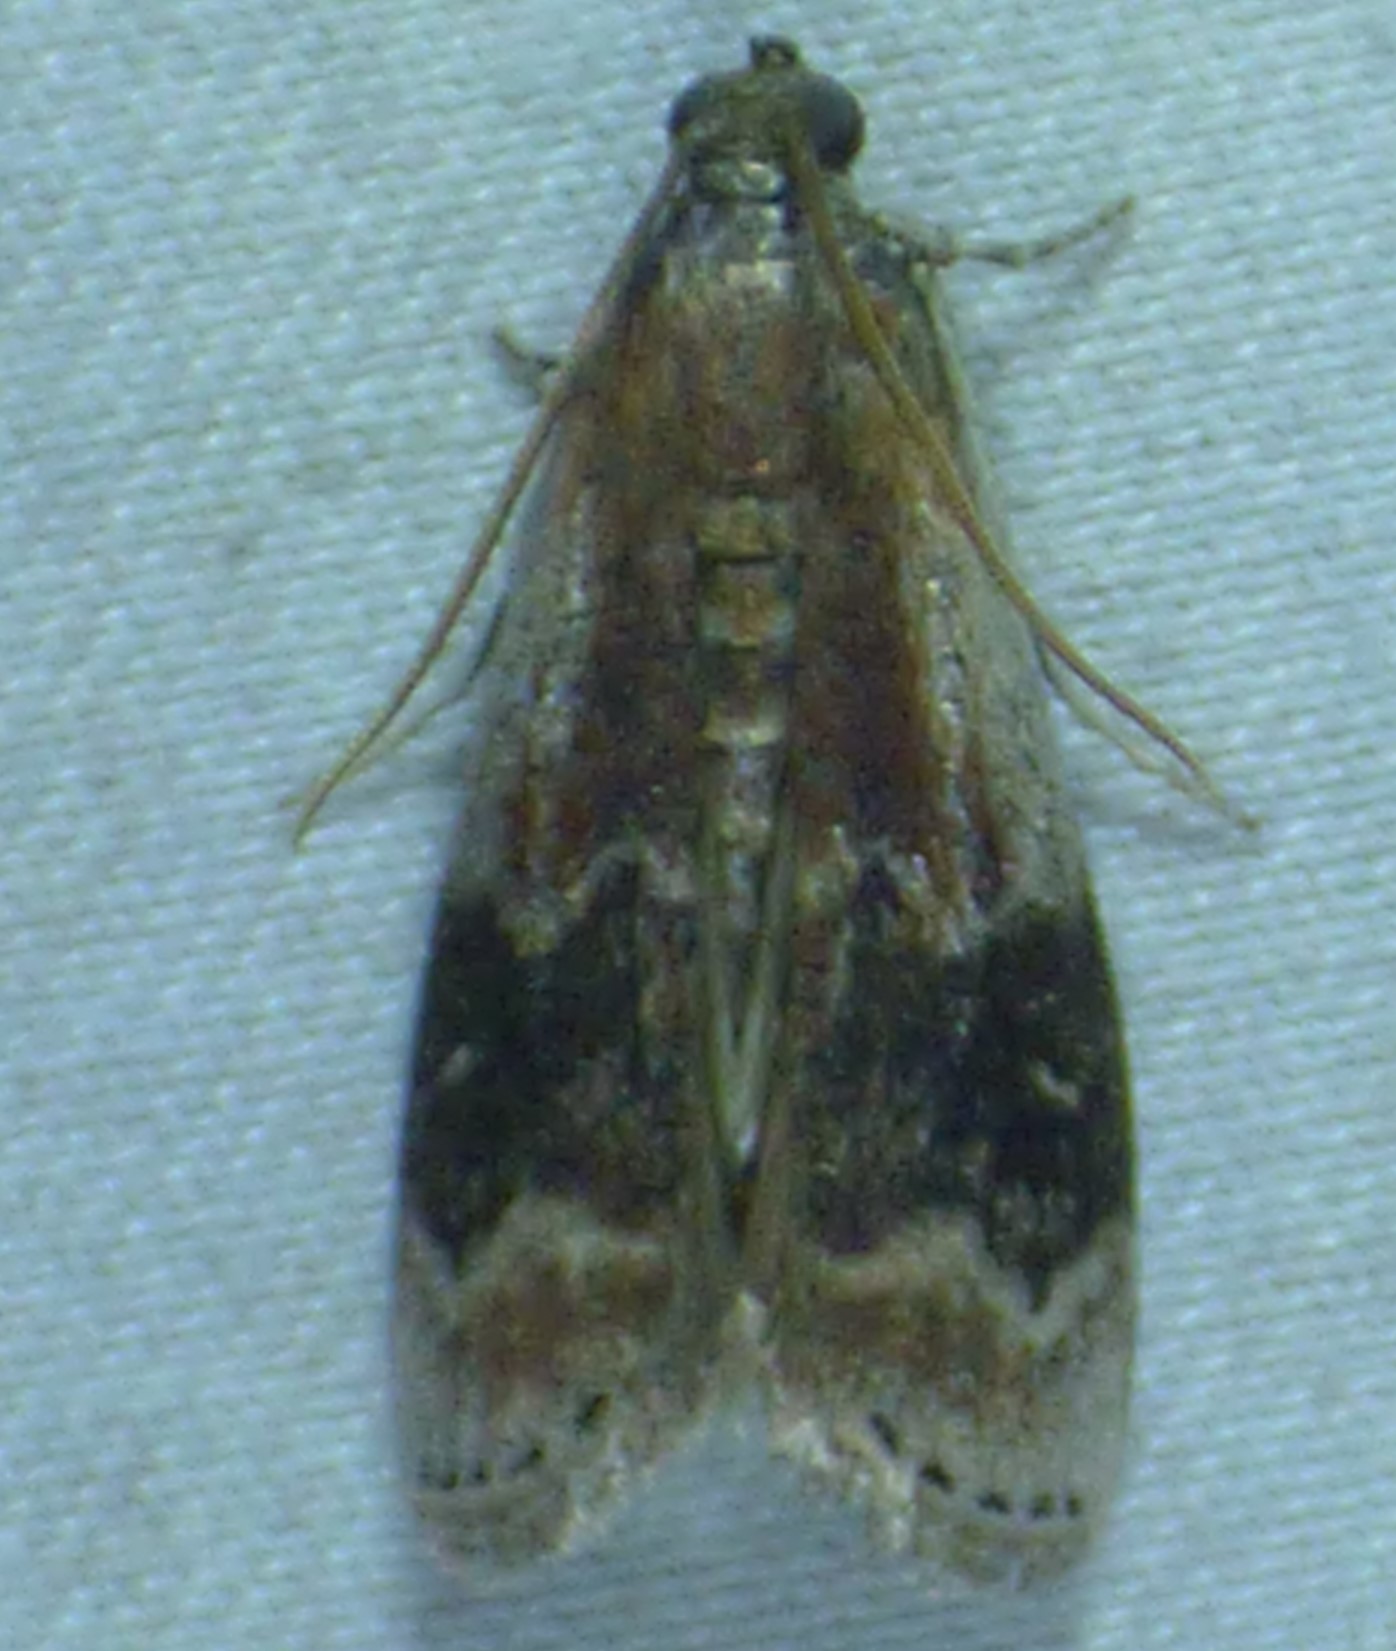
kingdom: Animalia
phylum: Arthropoda
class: Insecta
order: Lepidoptera
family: Pyralidae
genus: Euzophera
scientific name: Euzophera semifuneralis
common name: American plum borer moth
